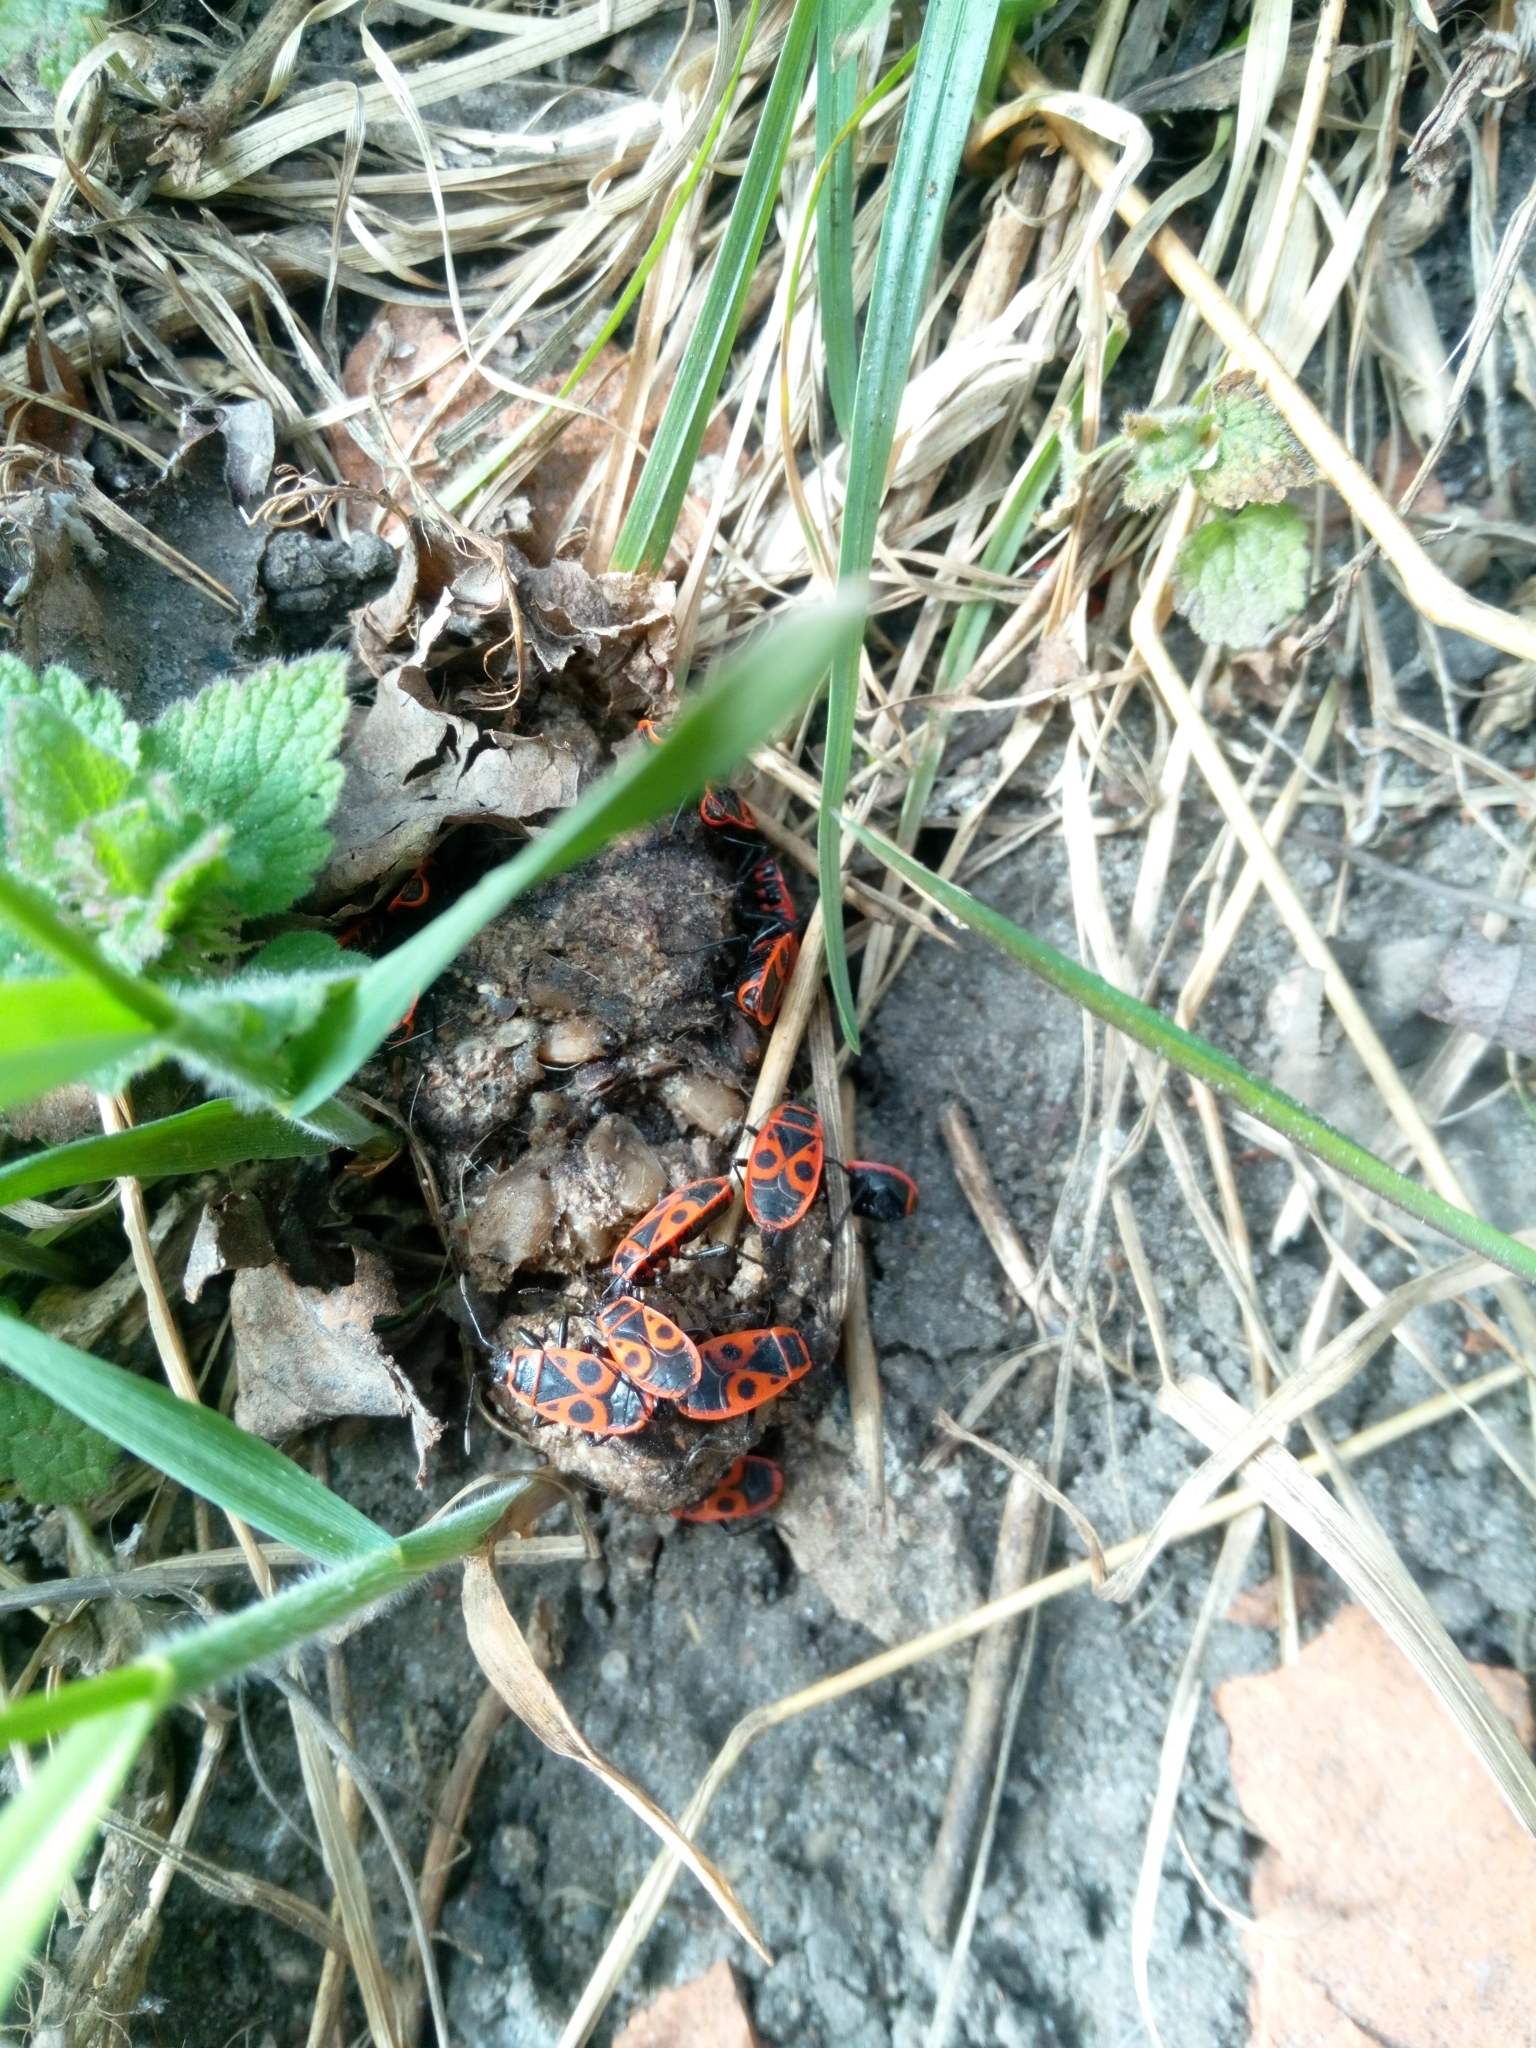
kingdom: Animalia
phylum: Arthropoda
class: Insecta
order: Hemiptera
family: Pyrrhocoridae
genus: Pyrrhocoris
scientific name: Pyrrhocoris apterus
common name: Firebug
